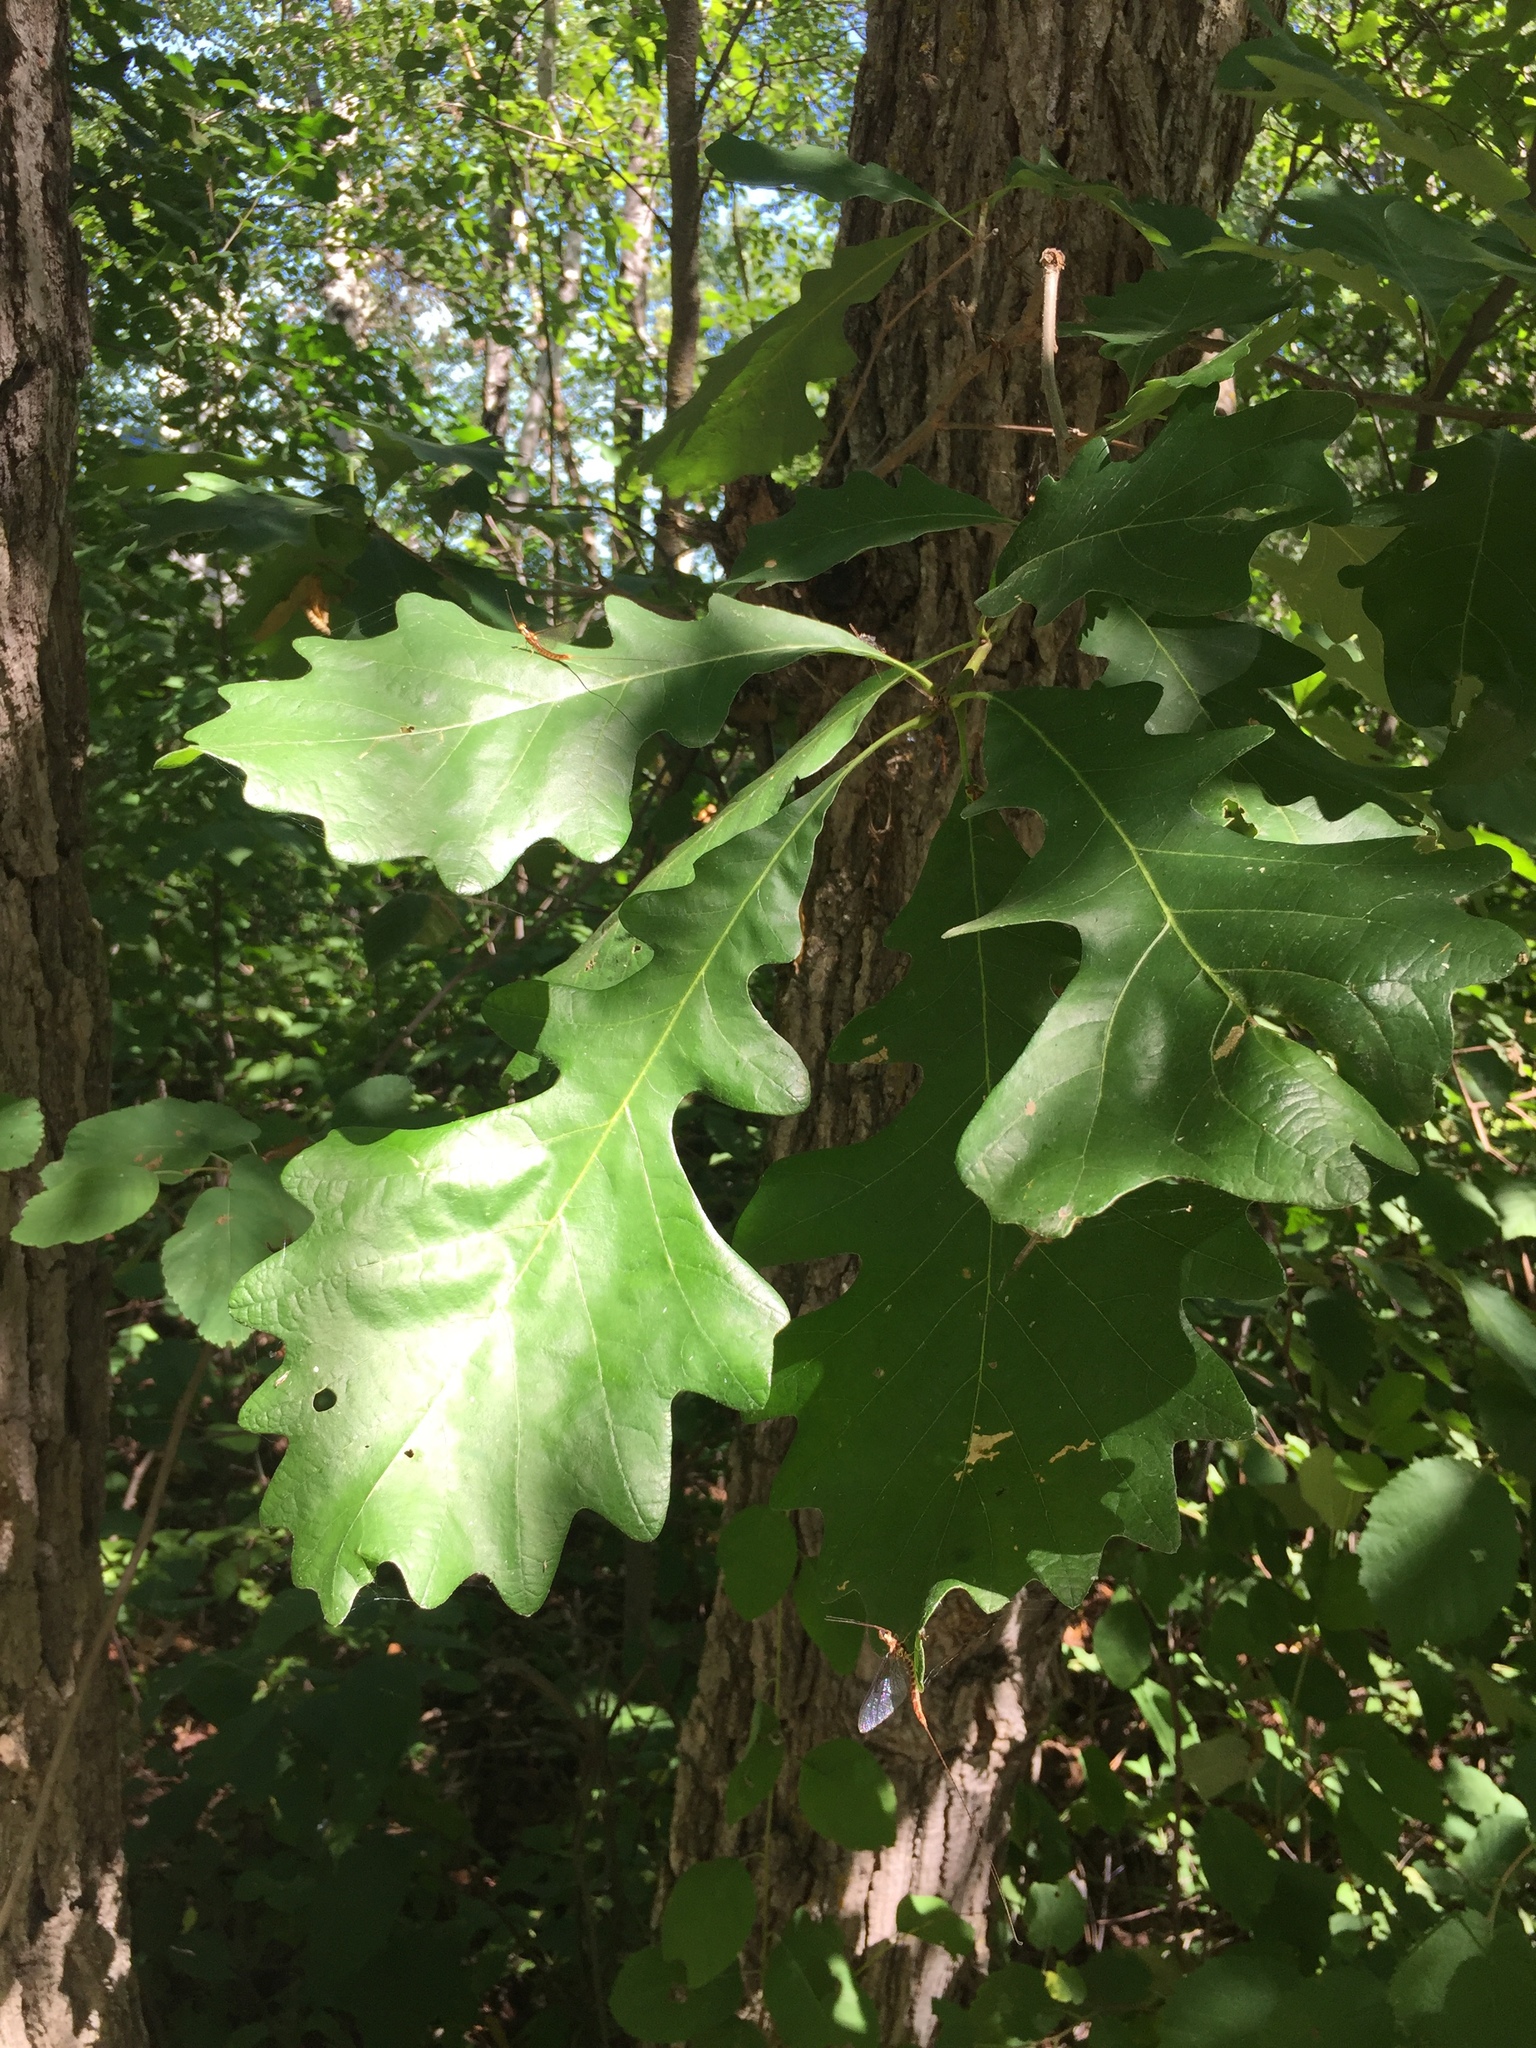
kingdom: Plantae
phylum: Tracheophyta
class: Magnoliopsida
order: Fagales
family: Fagaceae
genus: Quercus
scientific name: Quercus macrocarpa
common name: Bur oak
